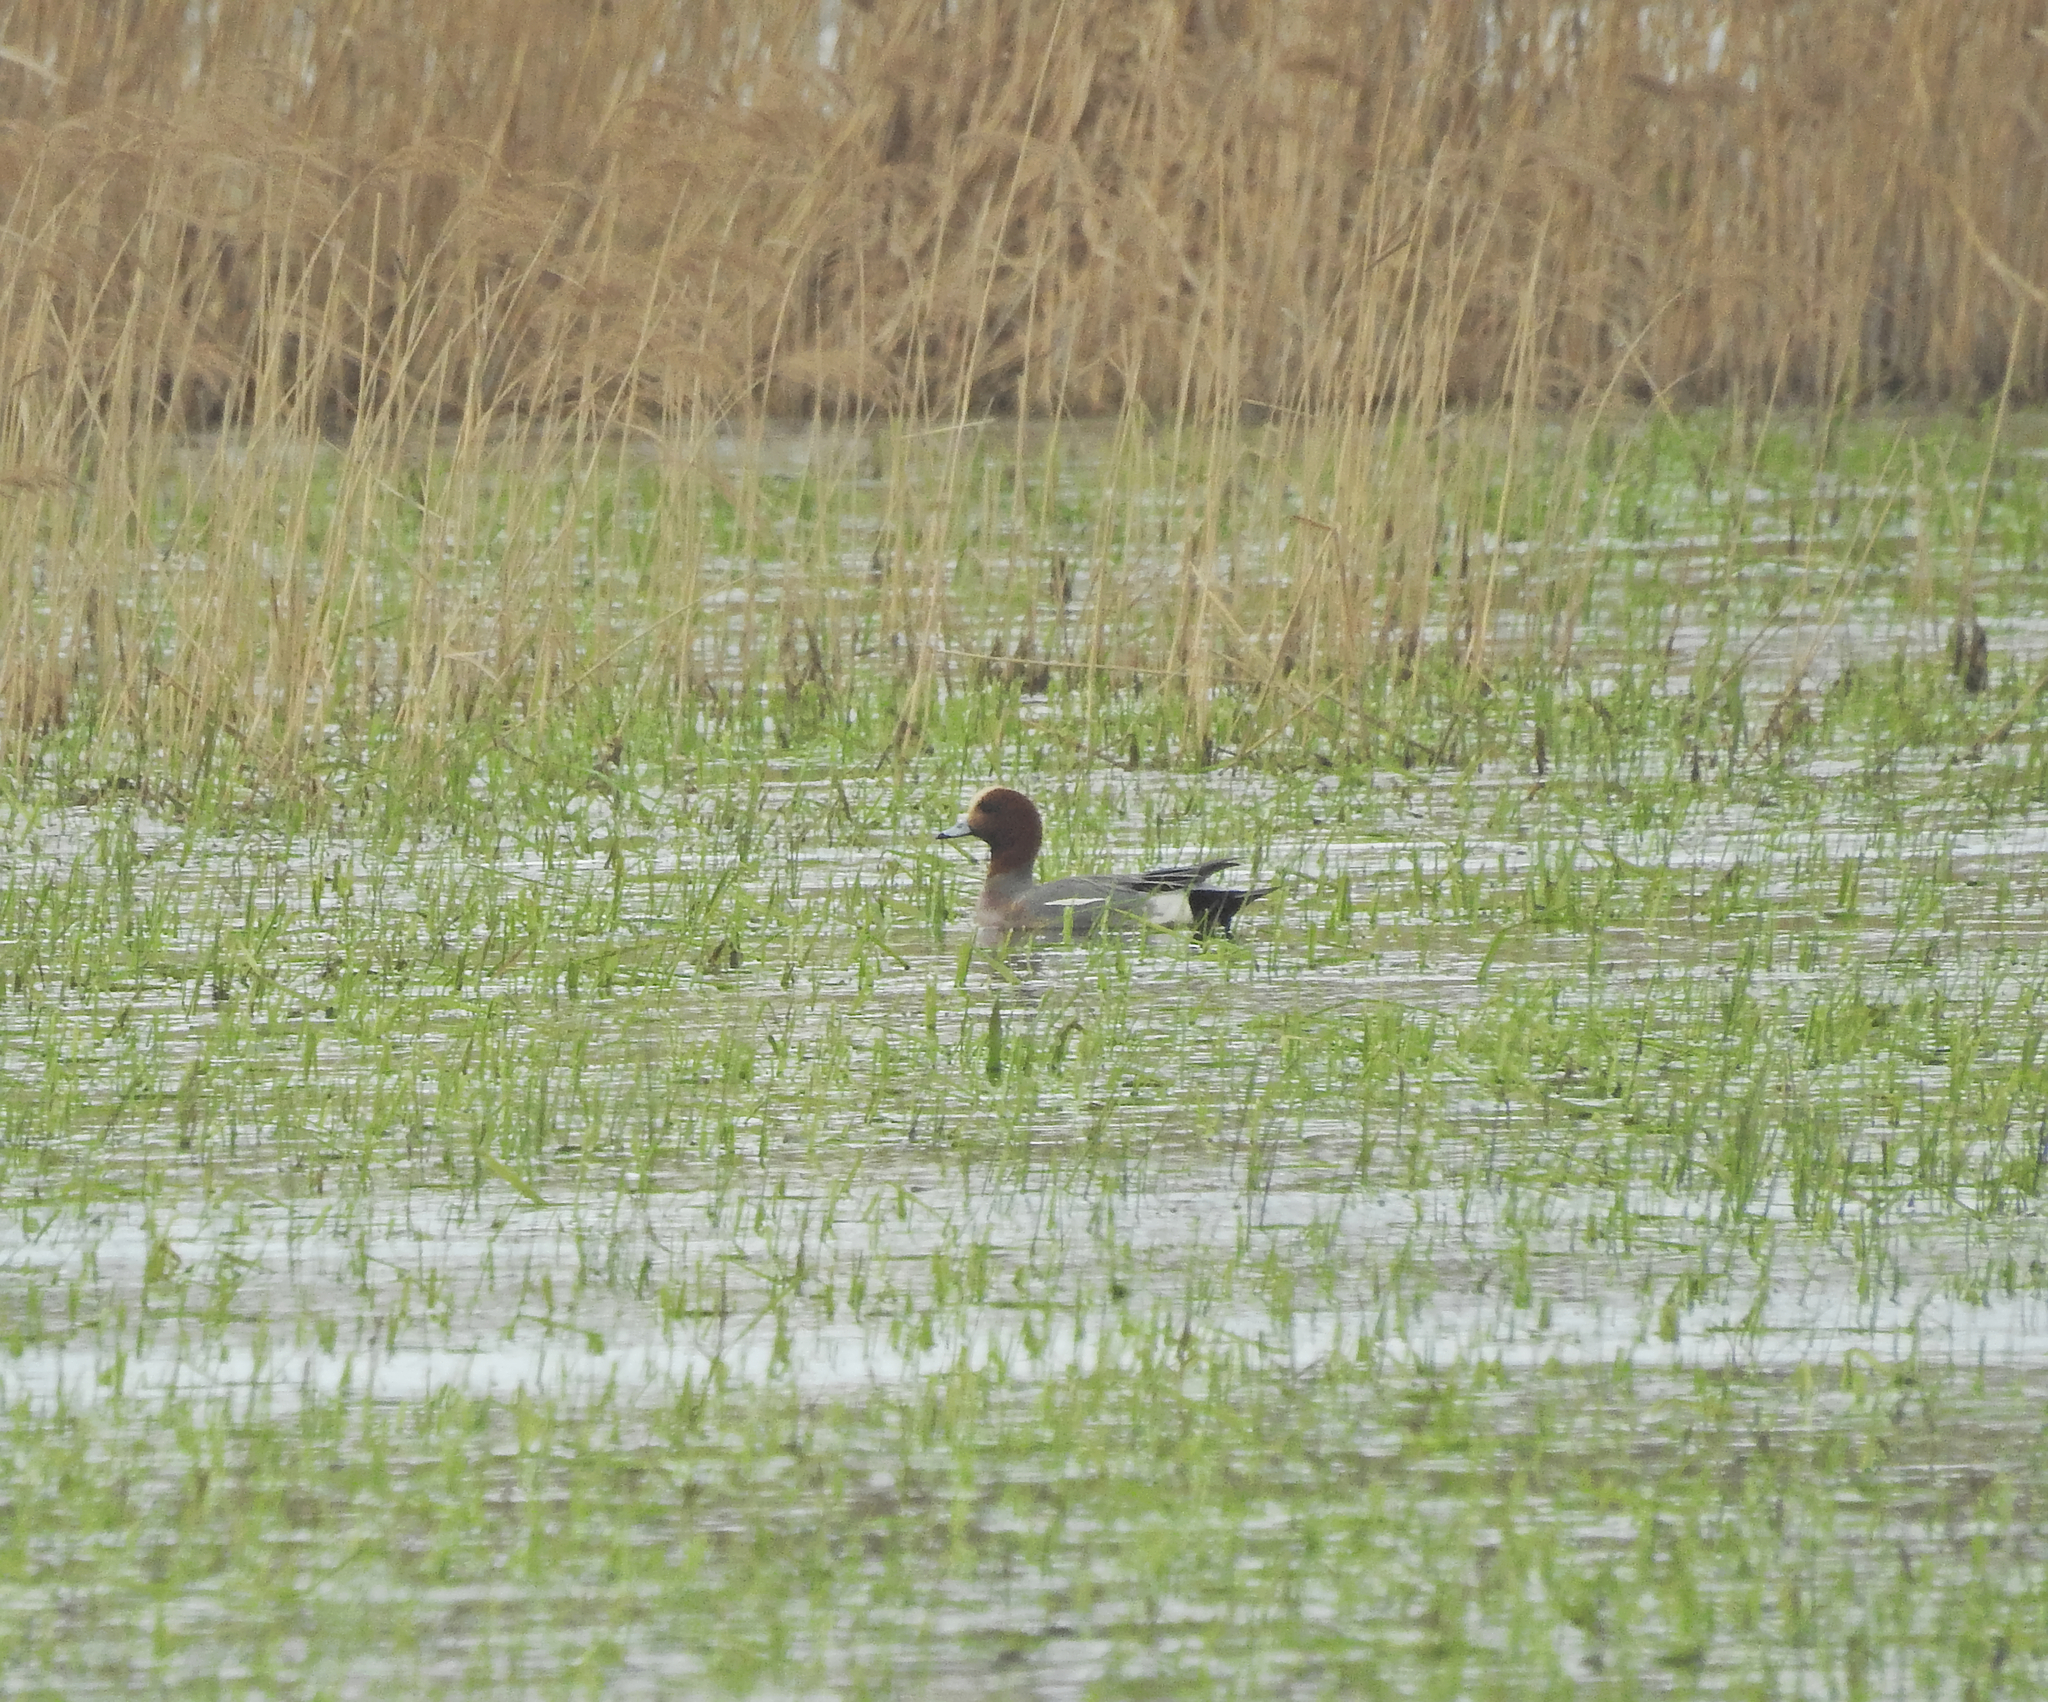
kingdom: Animalia
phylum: Chordata
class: Aves
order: Anseriformes
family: Anatidae
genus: Mareca
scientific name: Mareca penelope
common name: Eurasian wigeon
